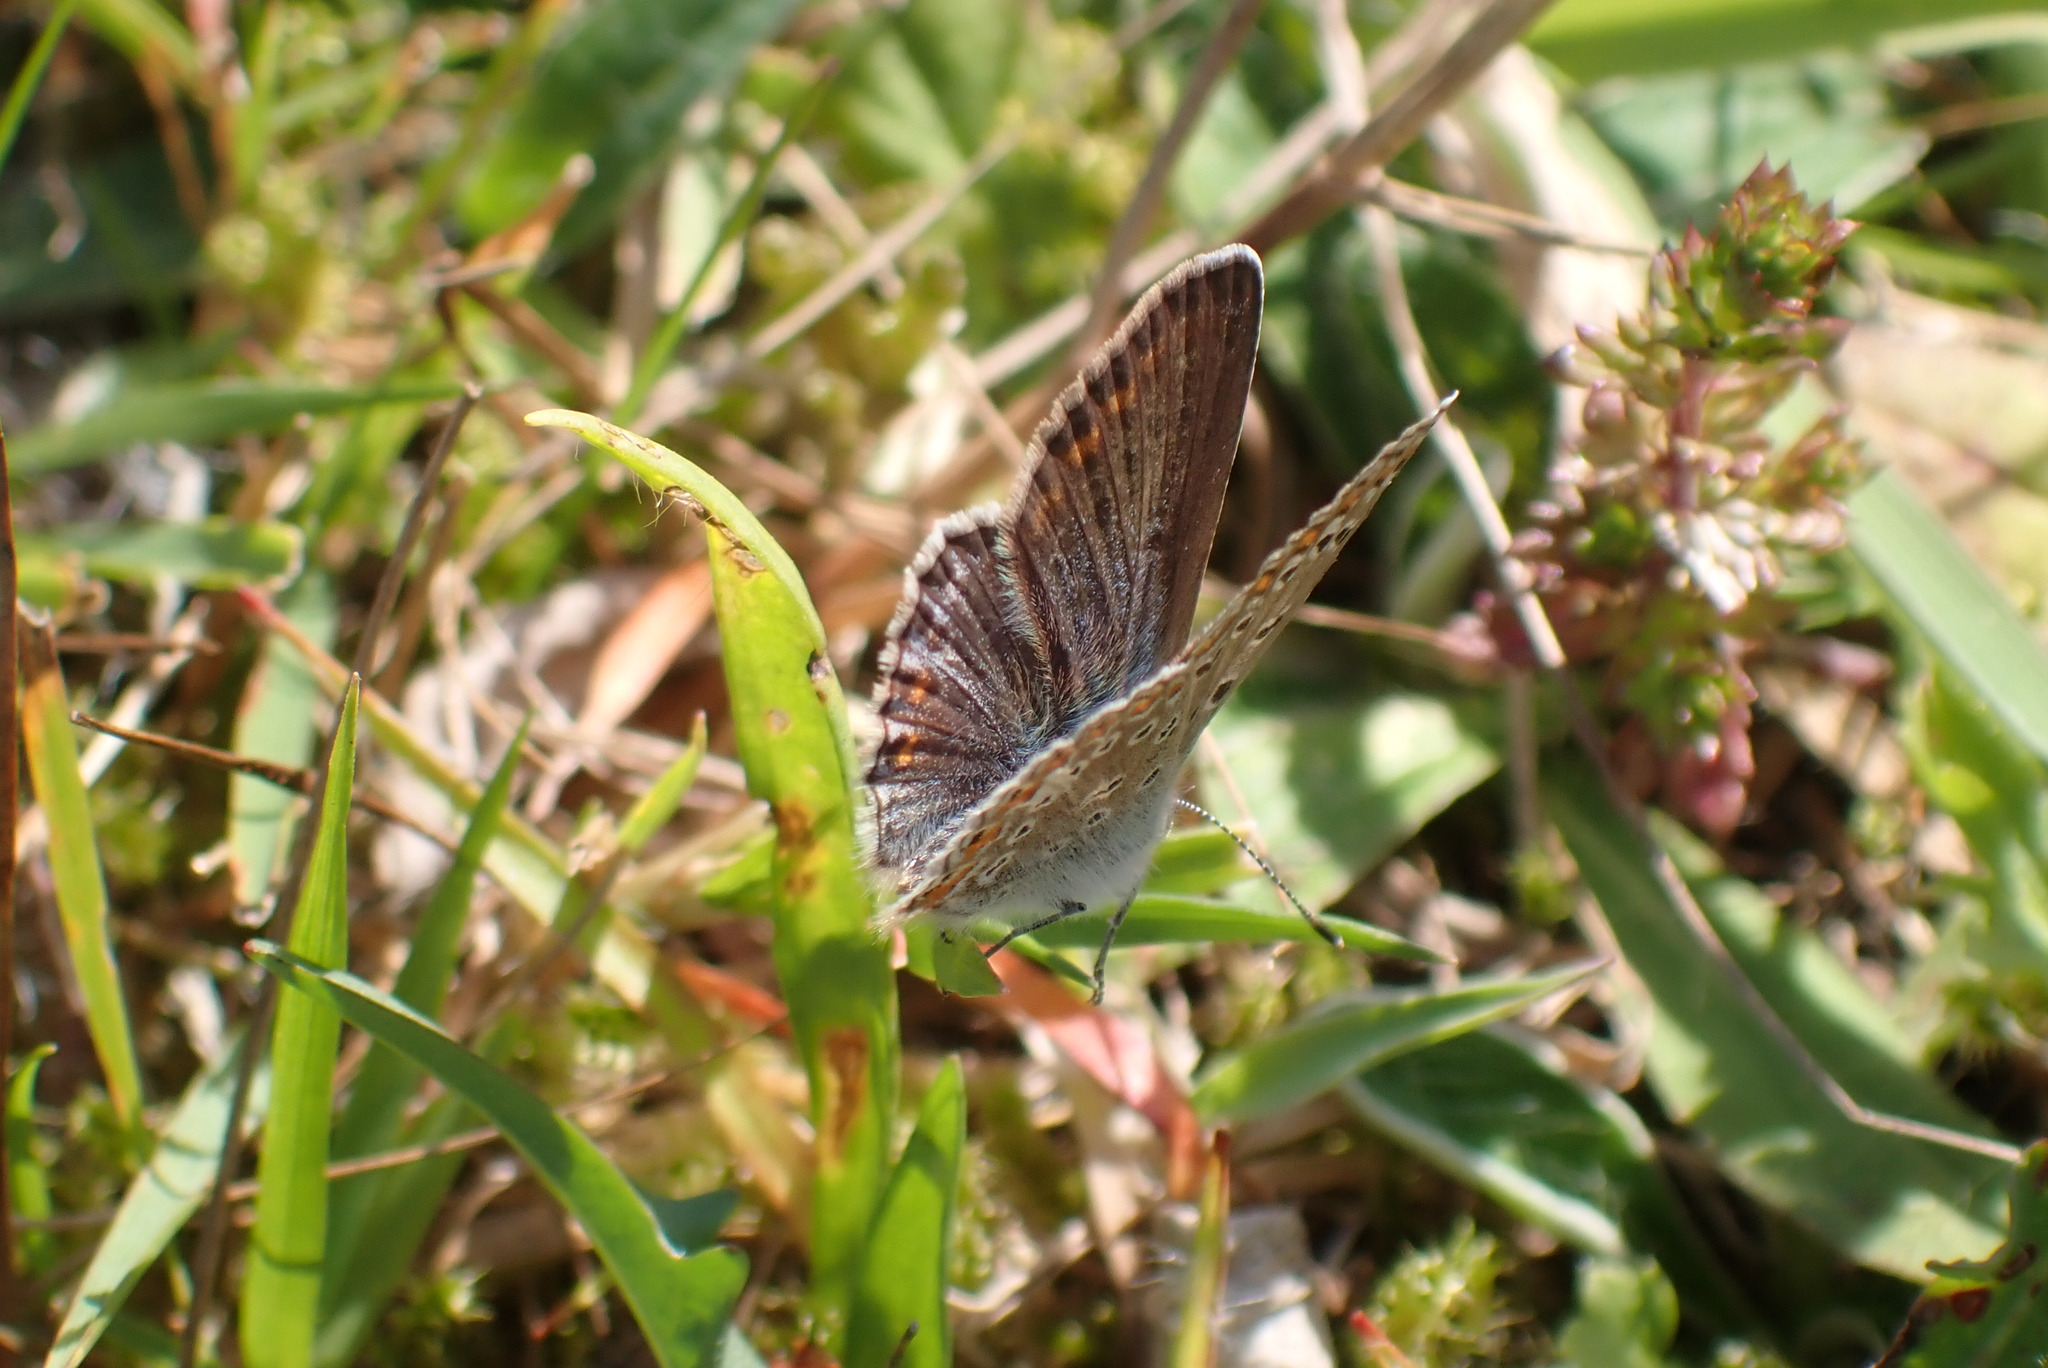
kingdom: Animalia
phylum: Arthropoda
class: Insecta
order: Lepidoptera
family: Lycaenidae
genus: Polyommatus
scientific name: Polyommatus icarus
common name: Common blue
